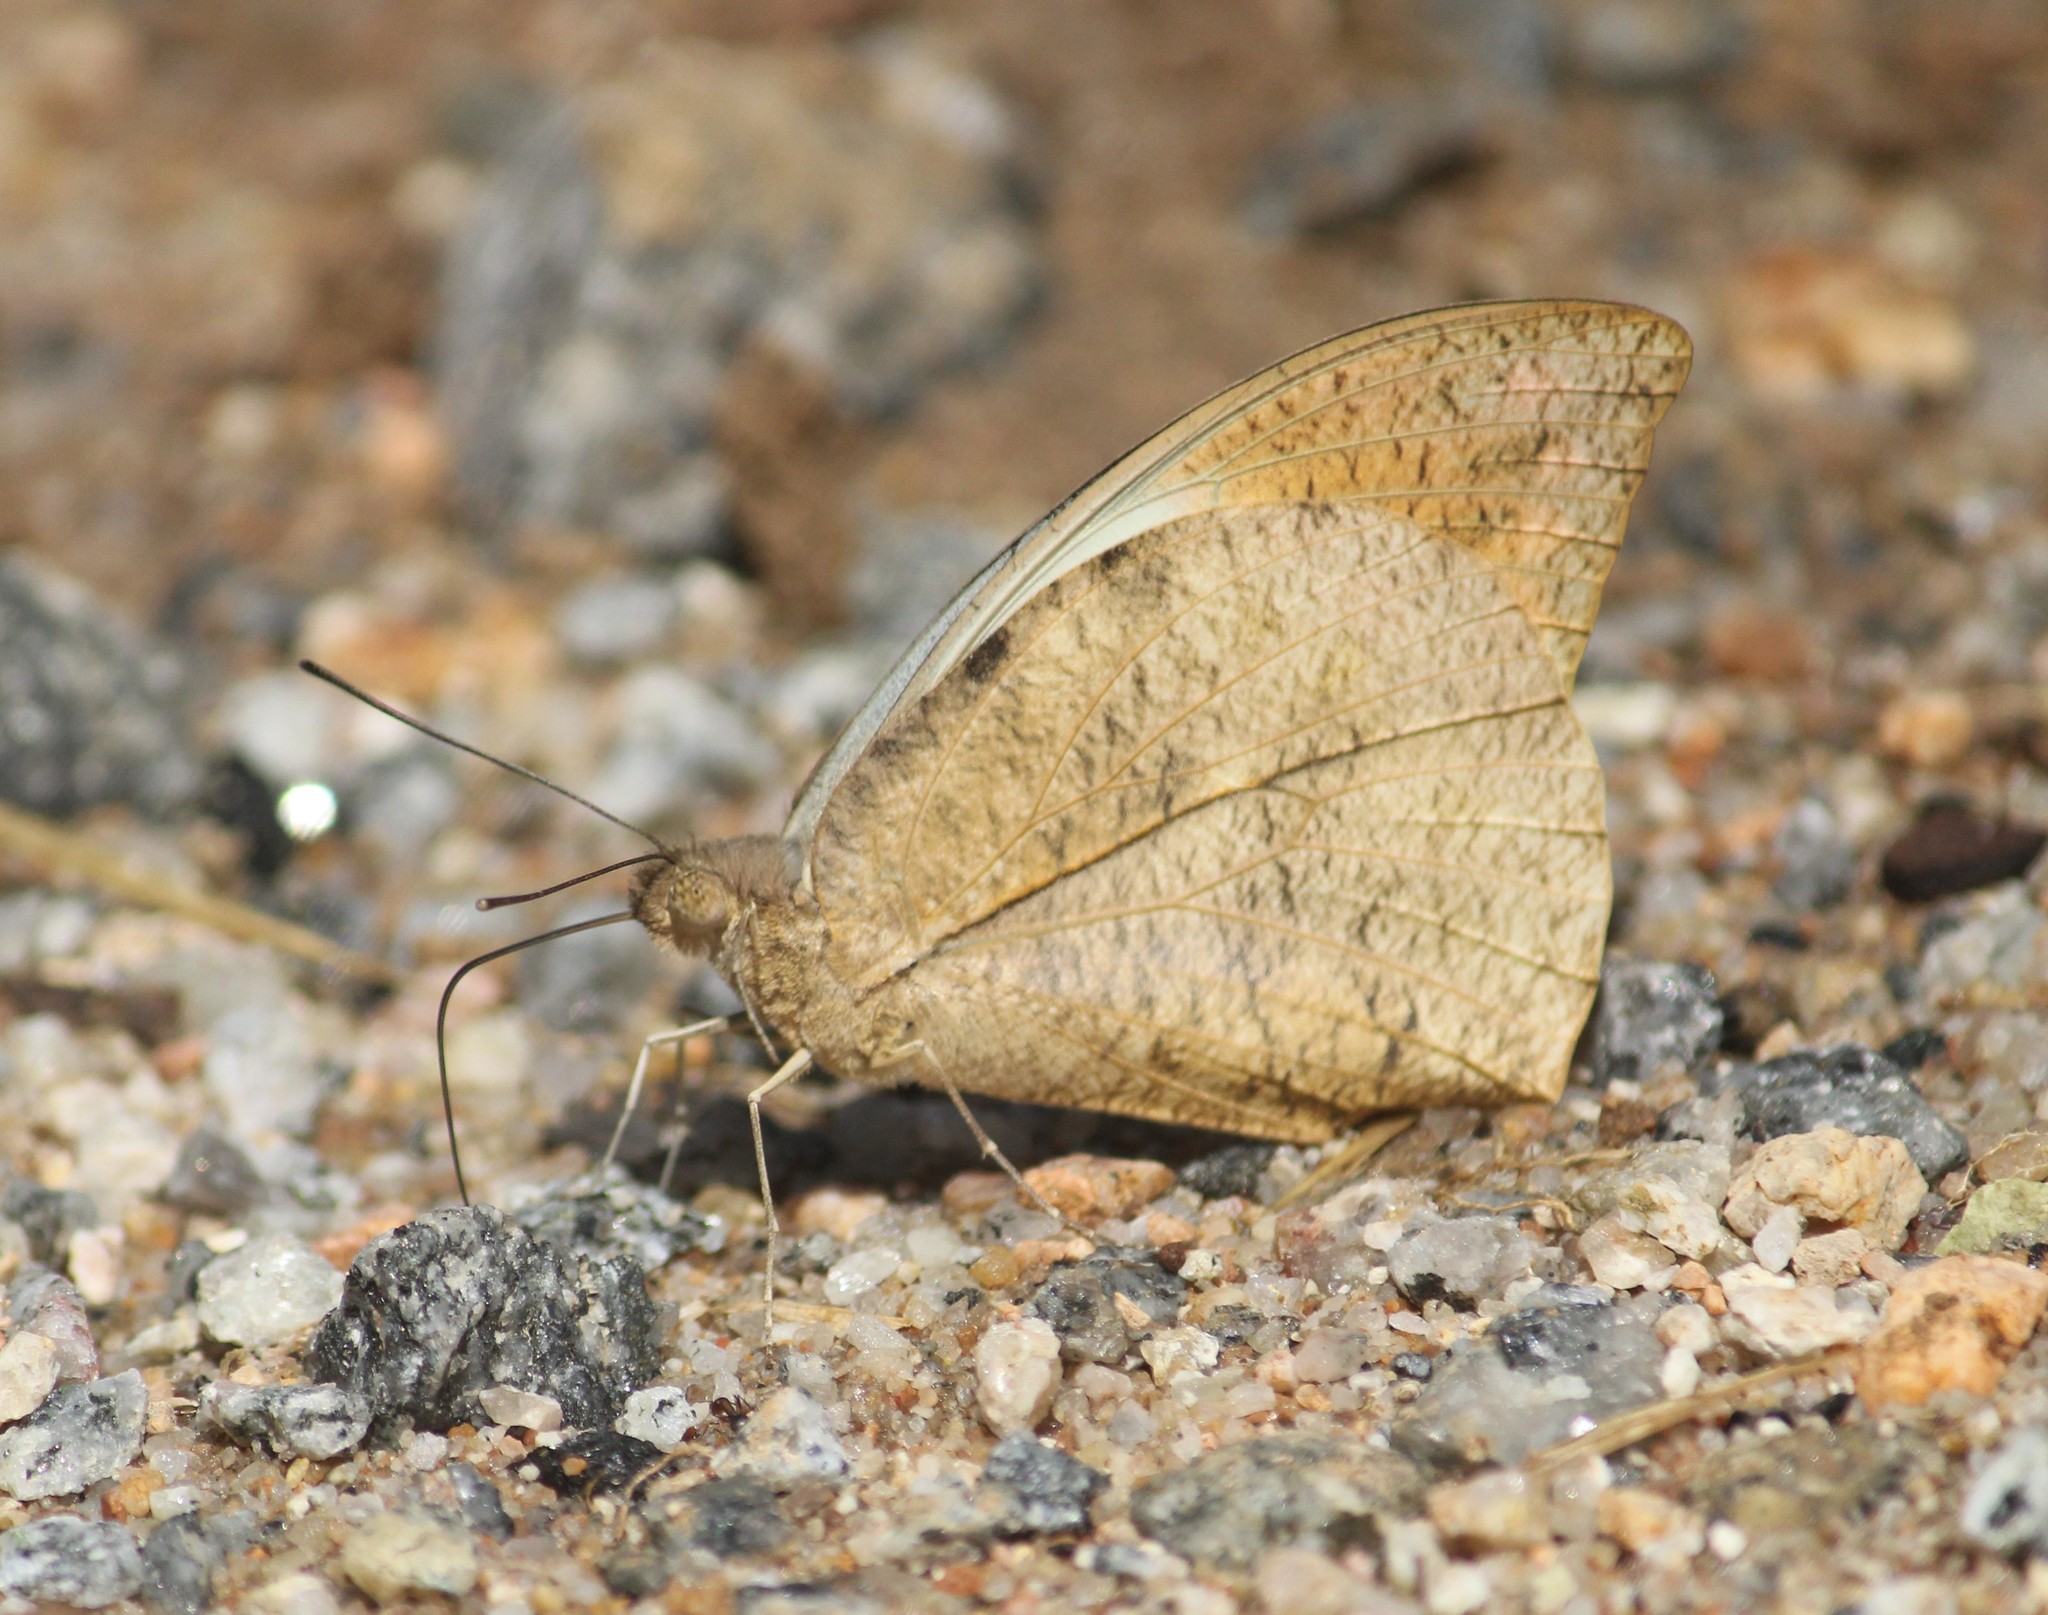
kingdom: Animalia
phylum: Arthropoda
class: Insecta
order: Lepidoptera
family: Pieridae
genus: Hebomoia
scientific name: Hebomoia glaucippe
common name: Great orange tip
